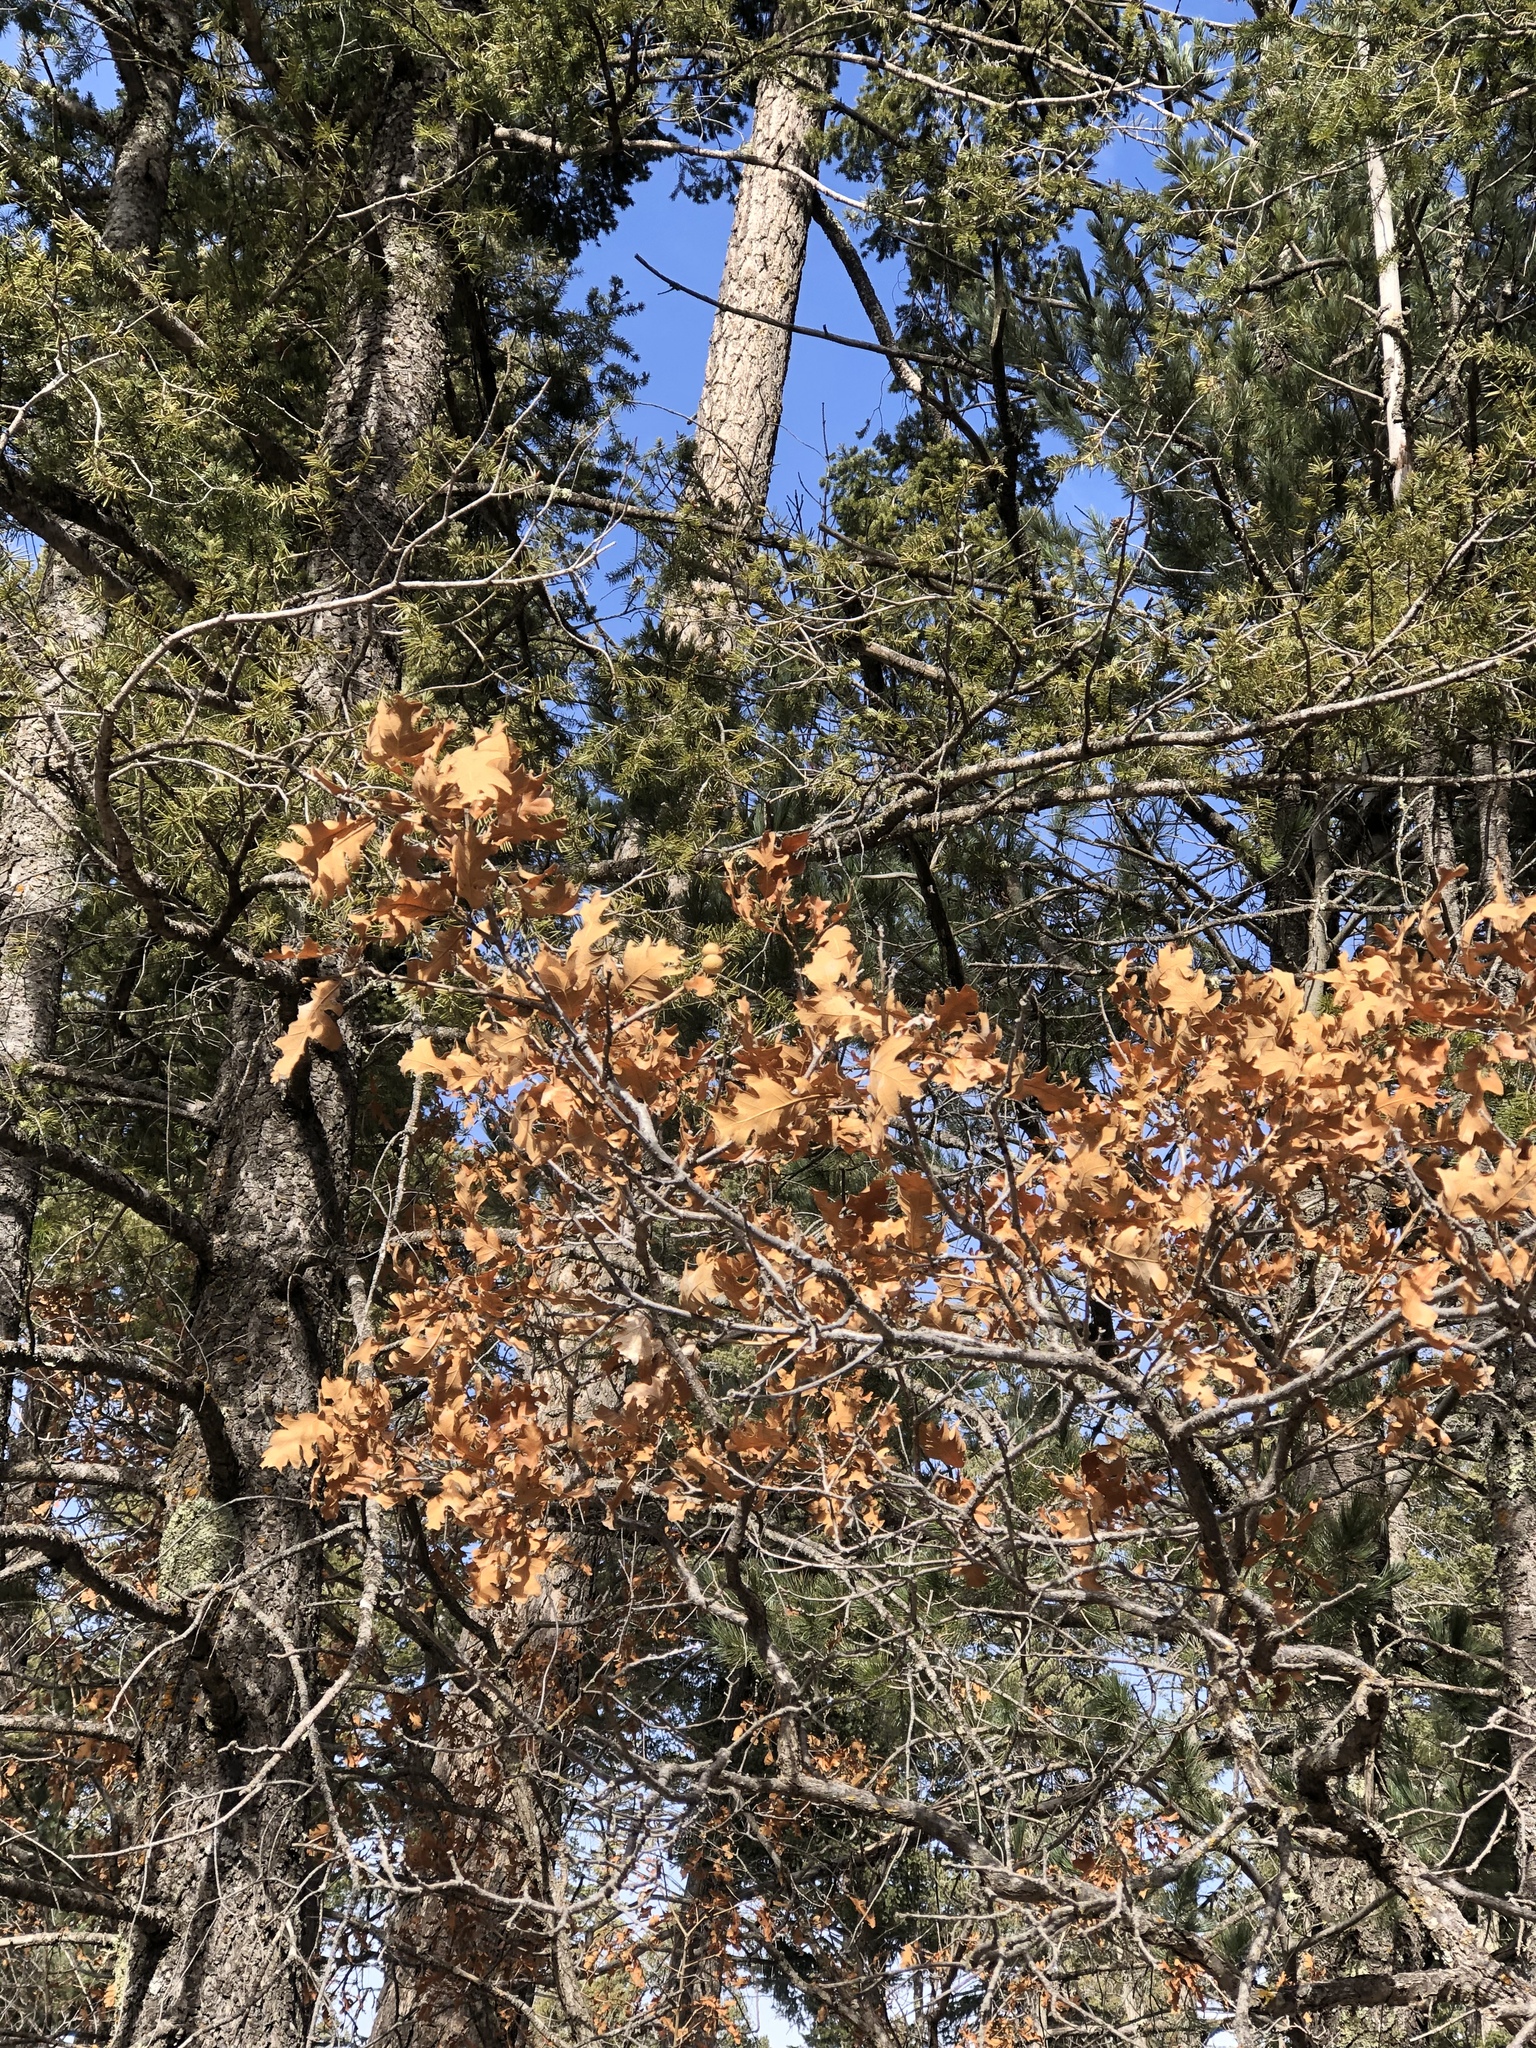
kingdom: Plantae
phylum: Tracheophyta
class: Magnoliopsida
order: Fagales
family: Fagaceae
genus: Quercus
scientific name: Quercus gambelii
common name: Gambel oak
